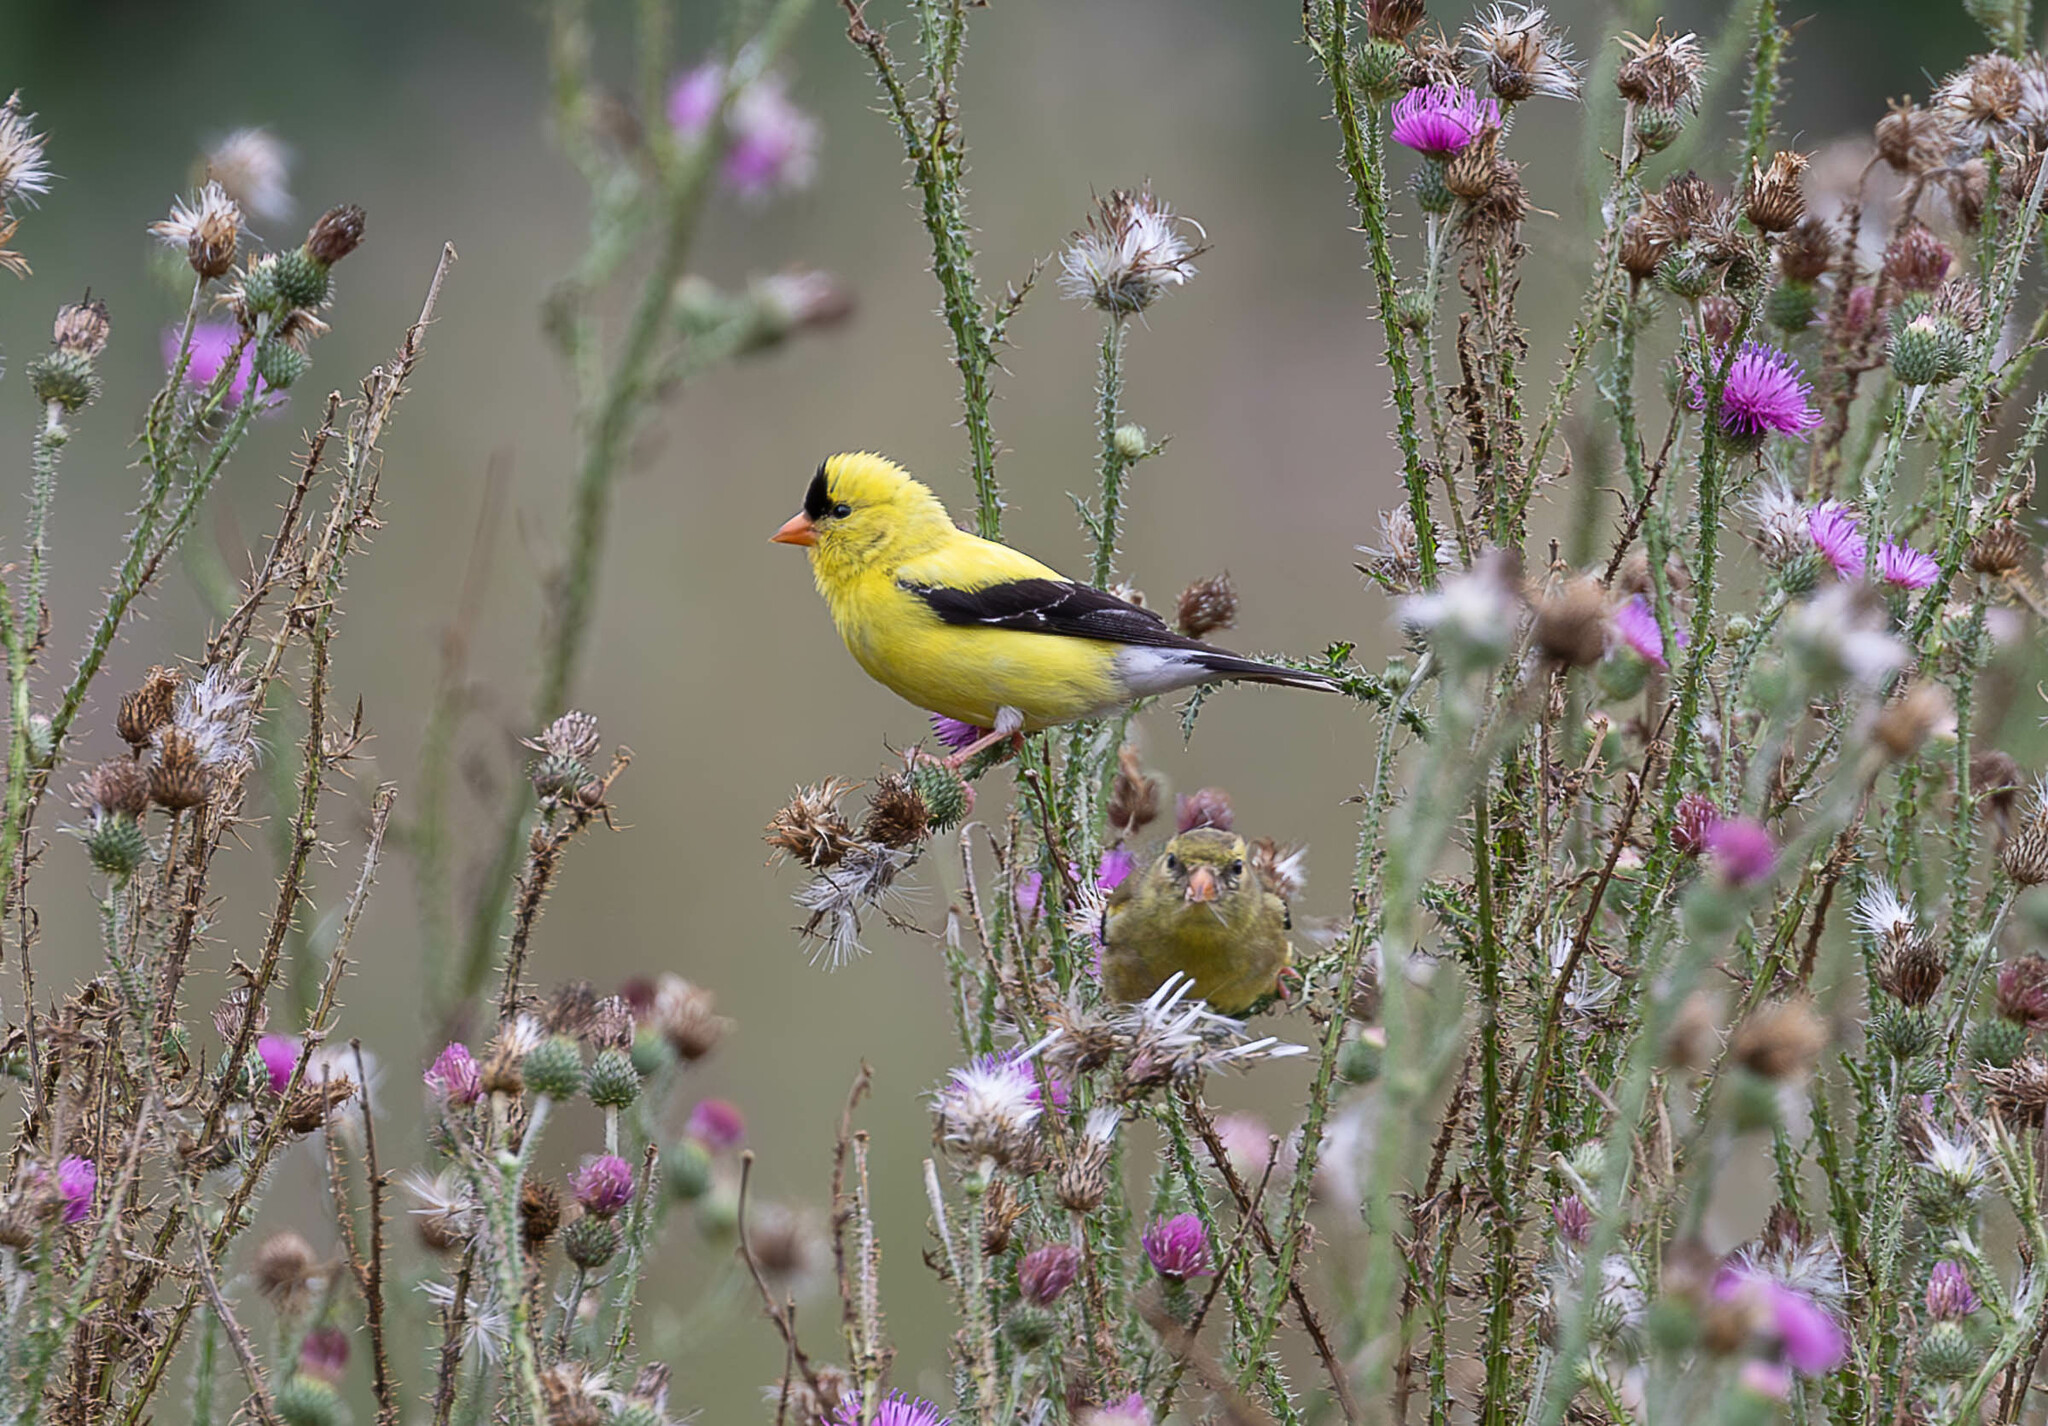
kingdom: Animalia
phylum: Chordata
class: Aves
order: Passeriformes
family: Fringillidae
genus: Spinus
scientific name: Spinus tristis
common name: American goldfinch
